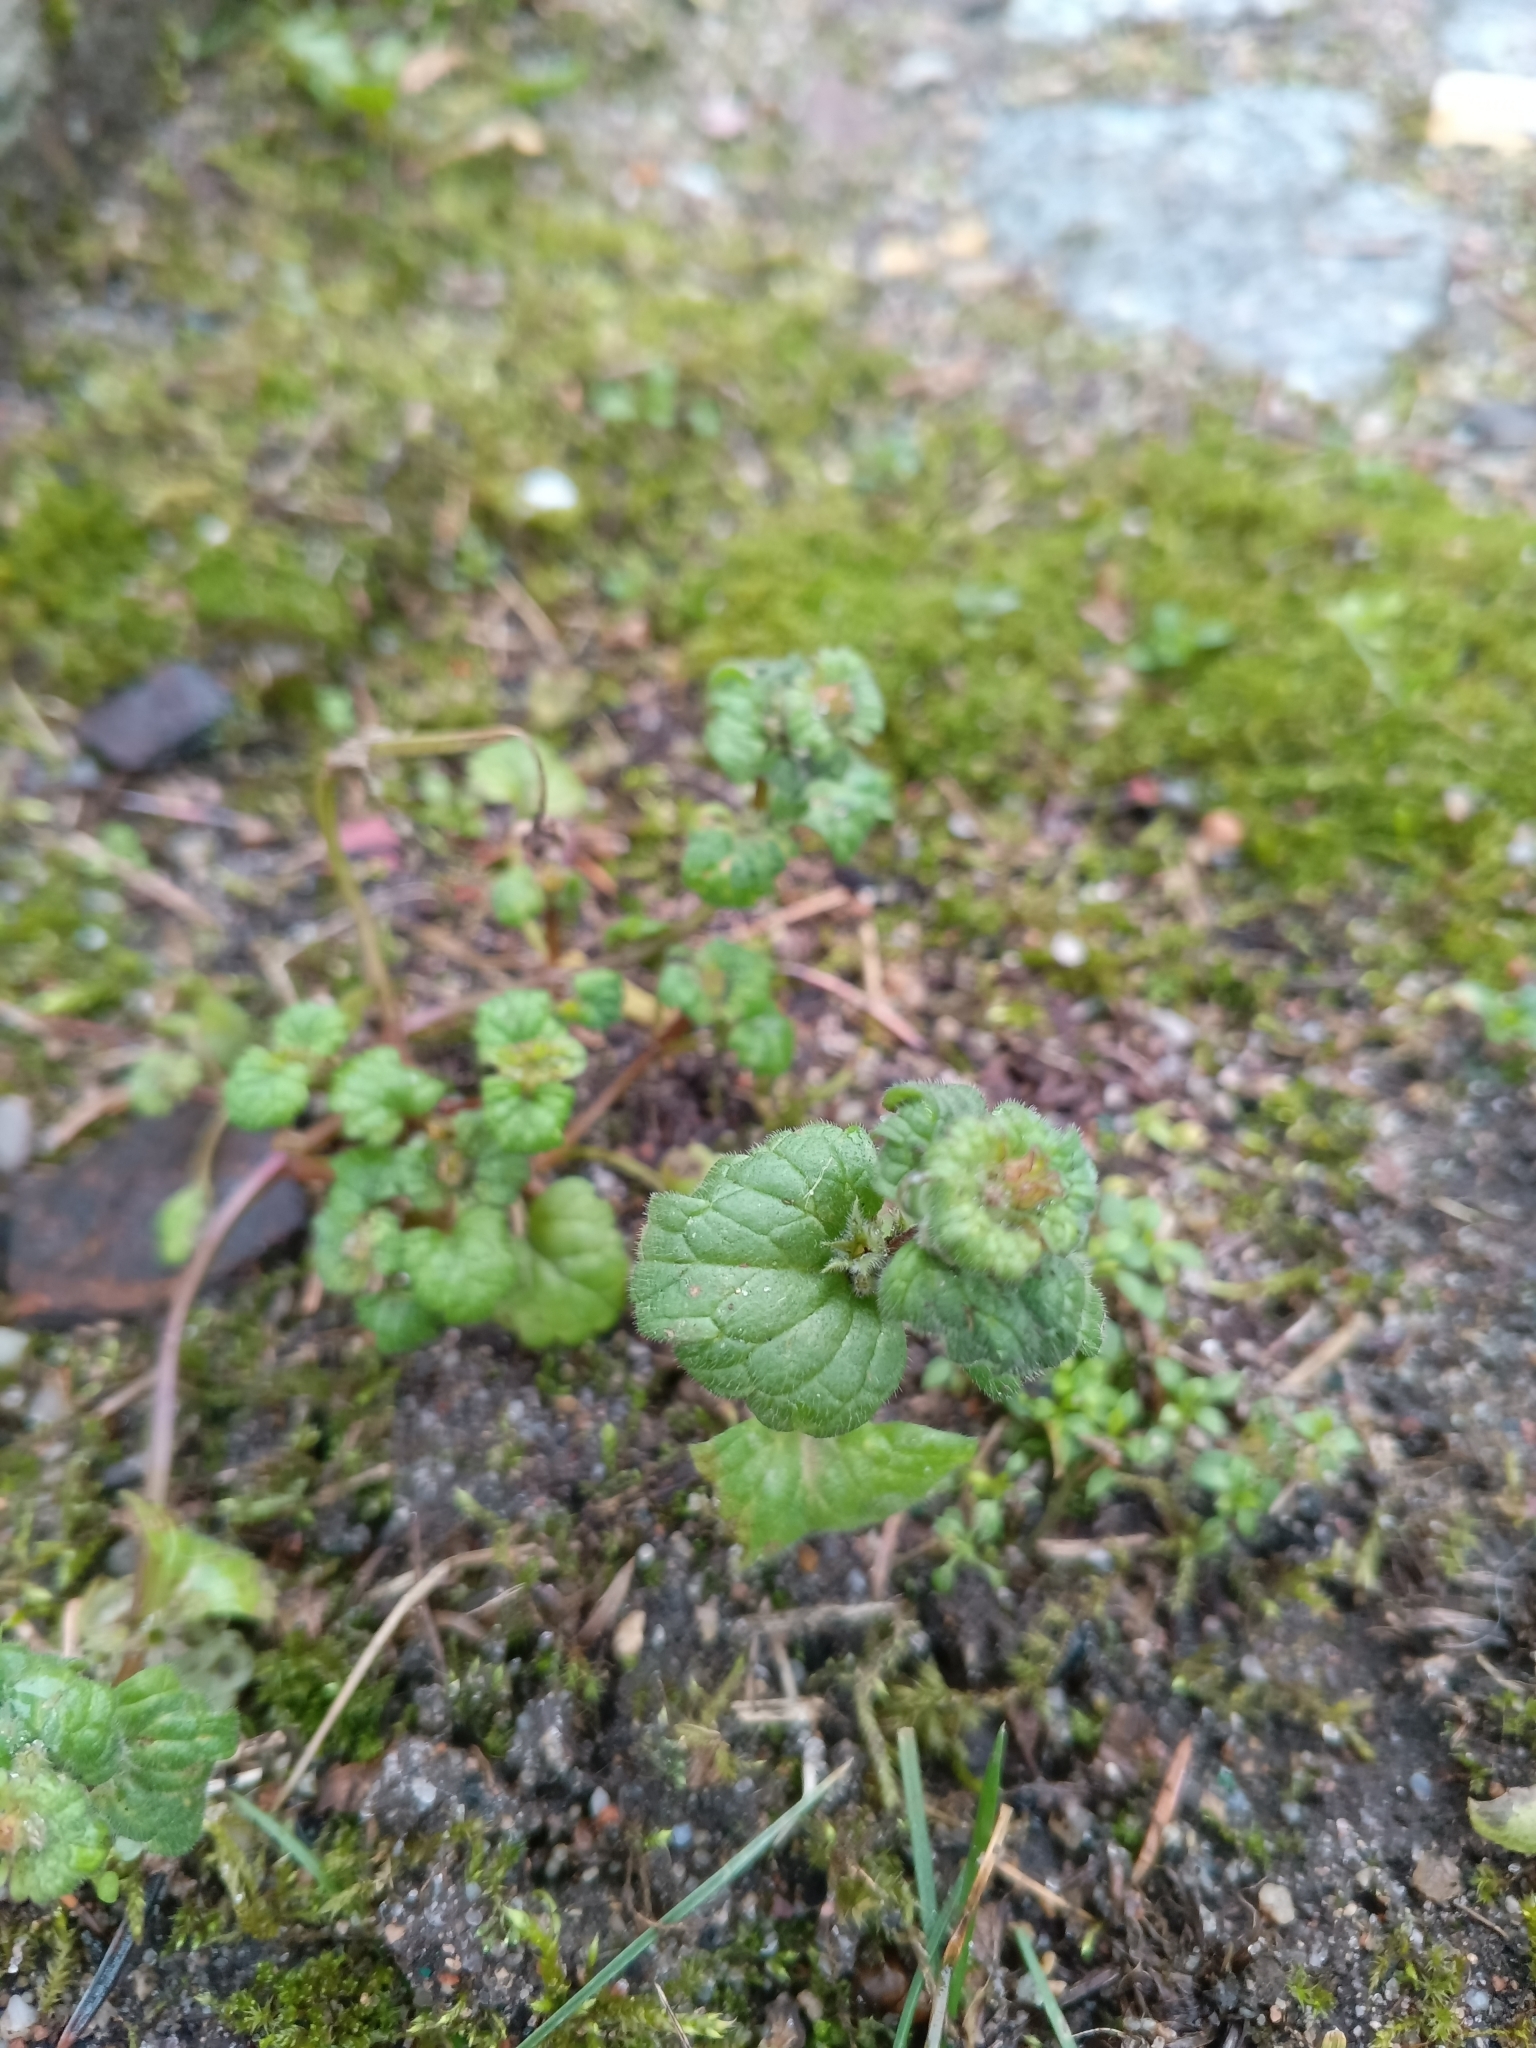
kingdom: Plantae
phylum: Tracheophyta
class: Magnoliopsida
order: Lamiales
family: Lamiaceae
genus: Lamium
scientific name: Lamium amplexicaule
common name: Henbit dead-nettle
